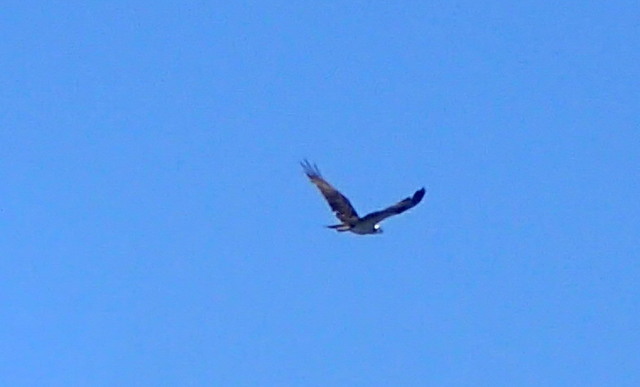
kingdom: Animalia
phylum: Chordata
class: Aves
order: Accipitriformes
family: Pandionidae
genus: Pandion
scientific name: Pandion haliaetus
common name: Osprey
